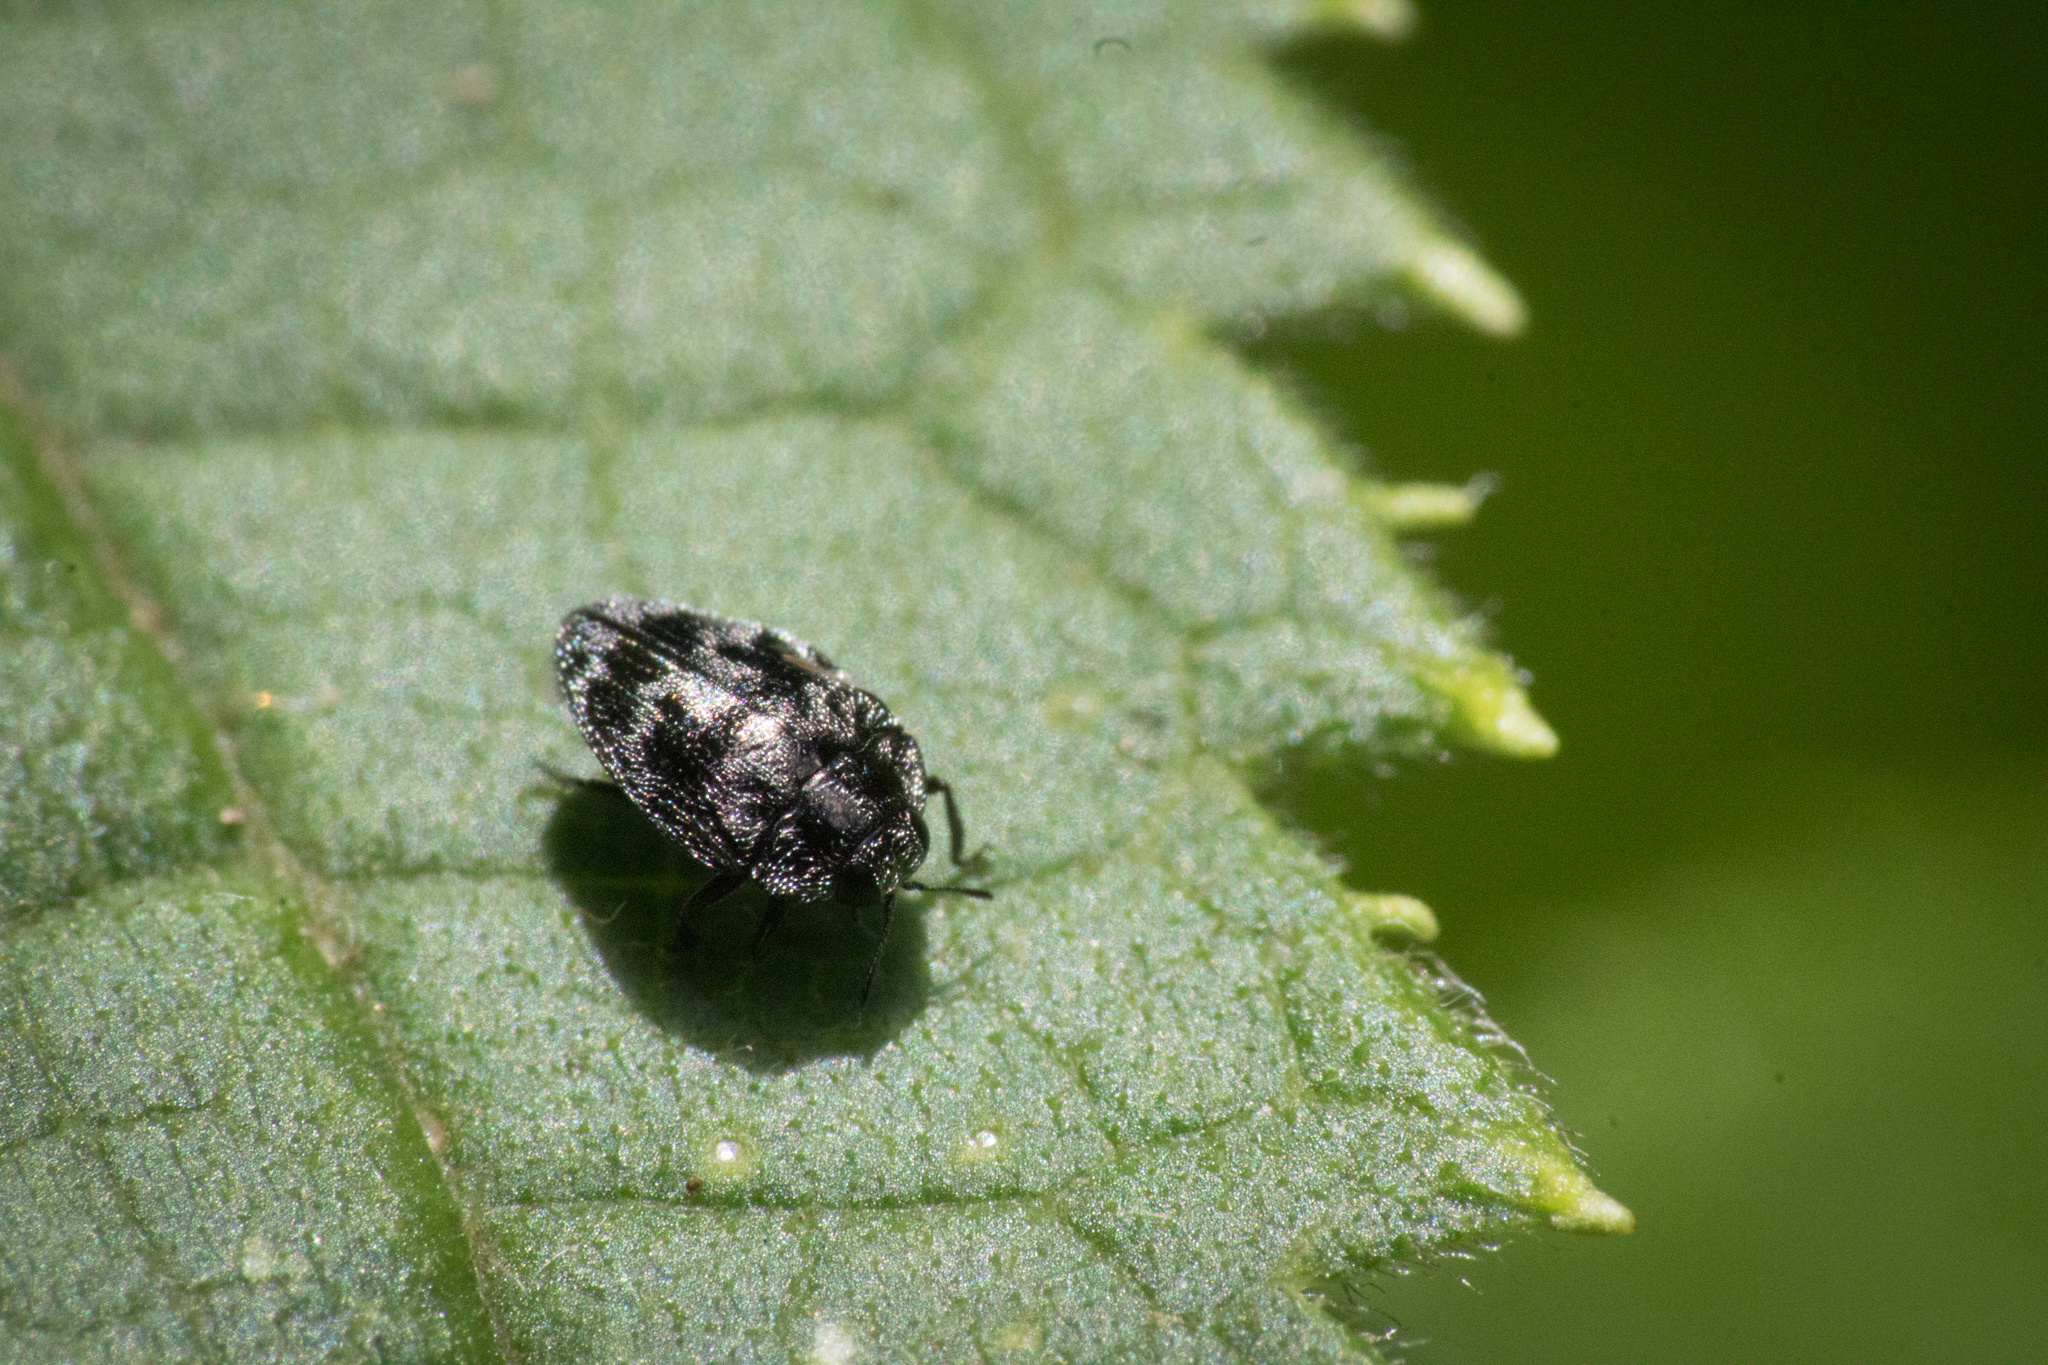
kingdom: Animalia
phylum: Arthropoda
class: Insecta
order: Coleoptera
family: Buprestidae
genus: Euhylaeogena
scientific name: Euhylaeogena
